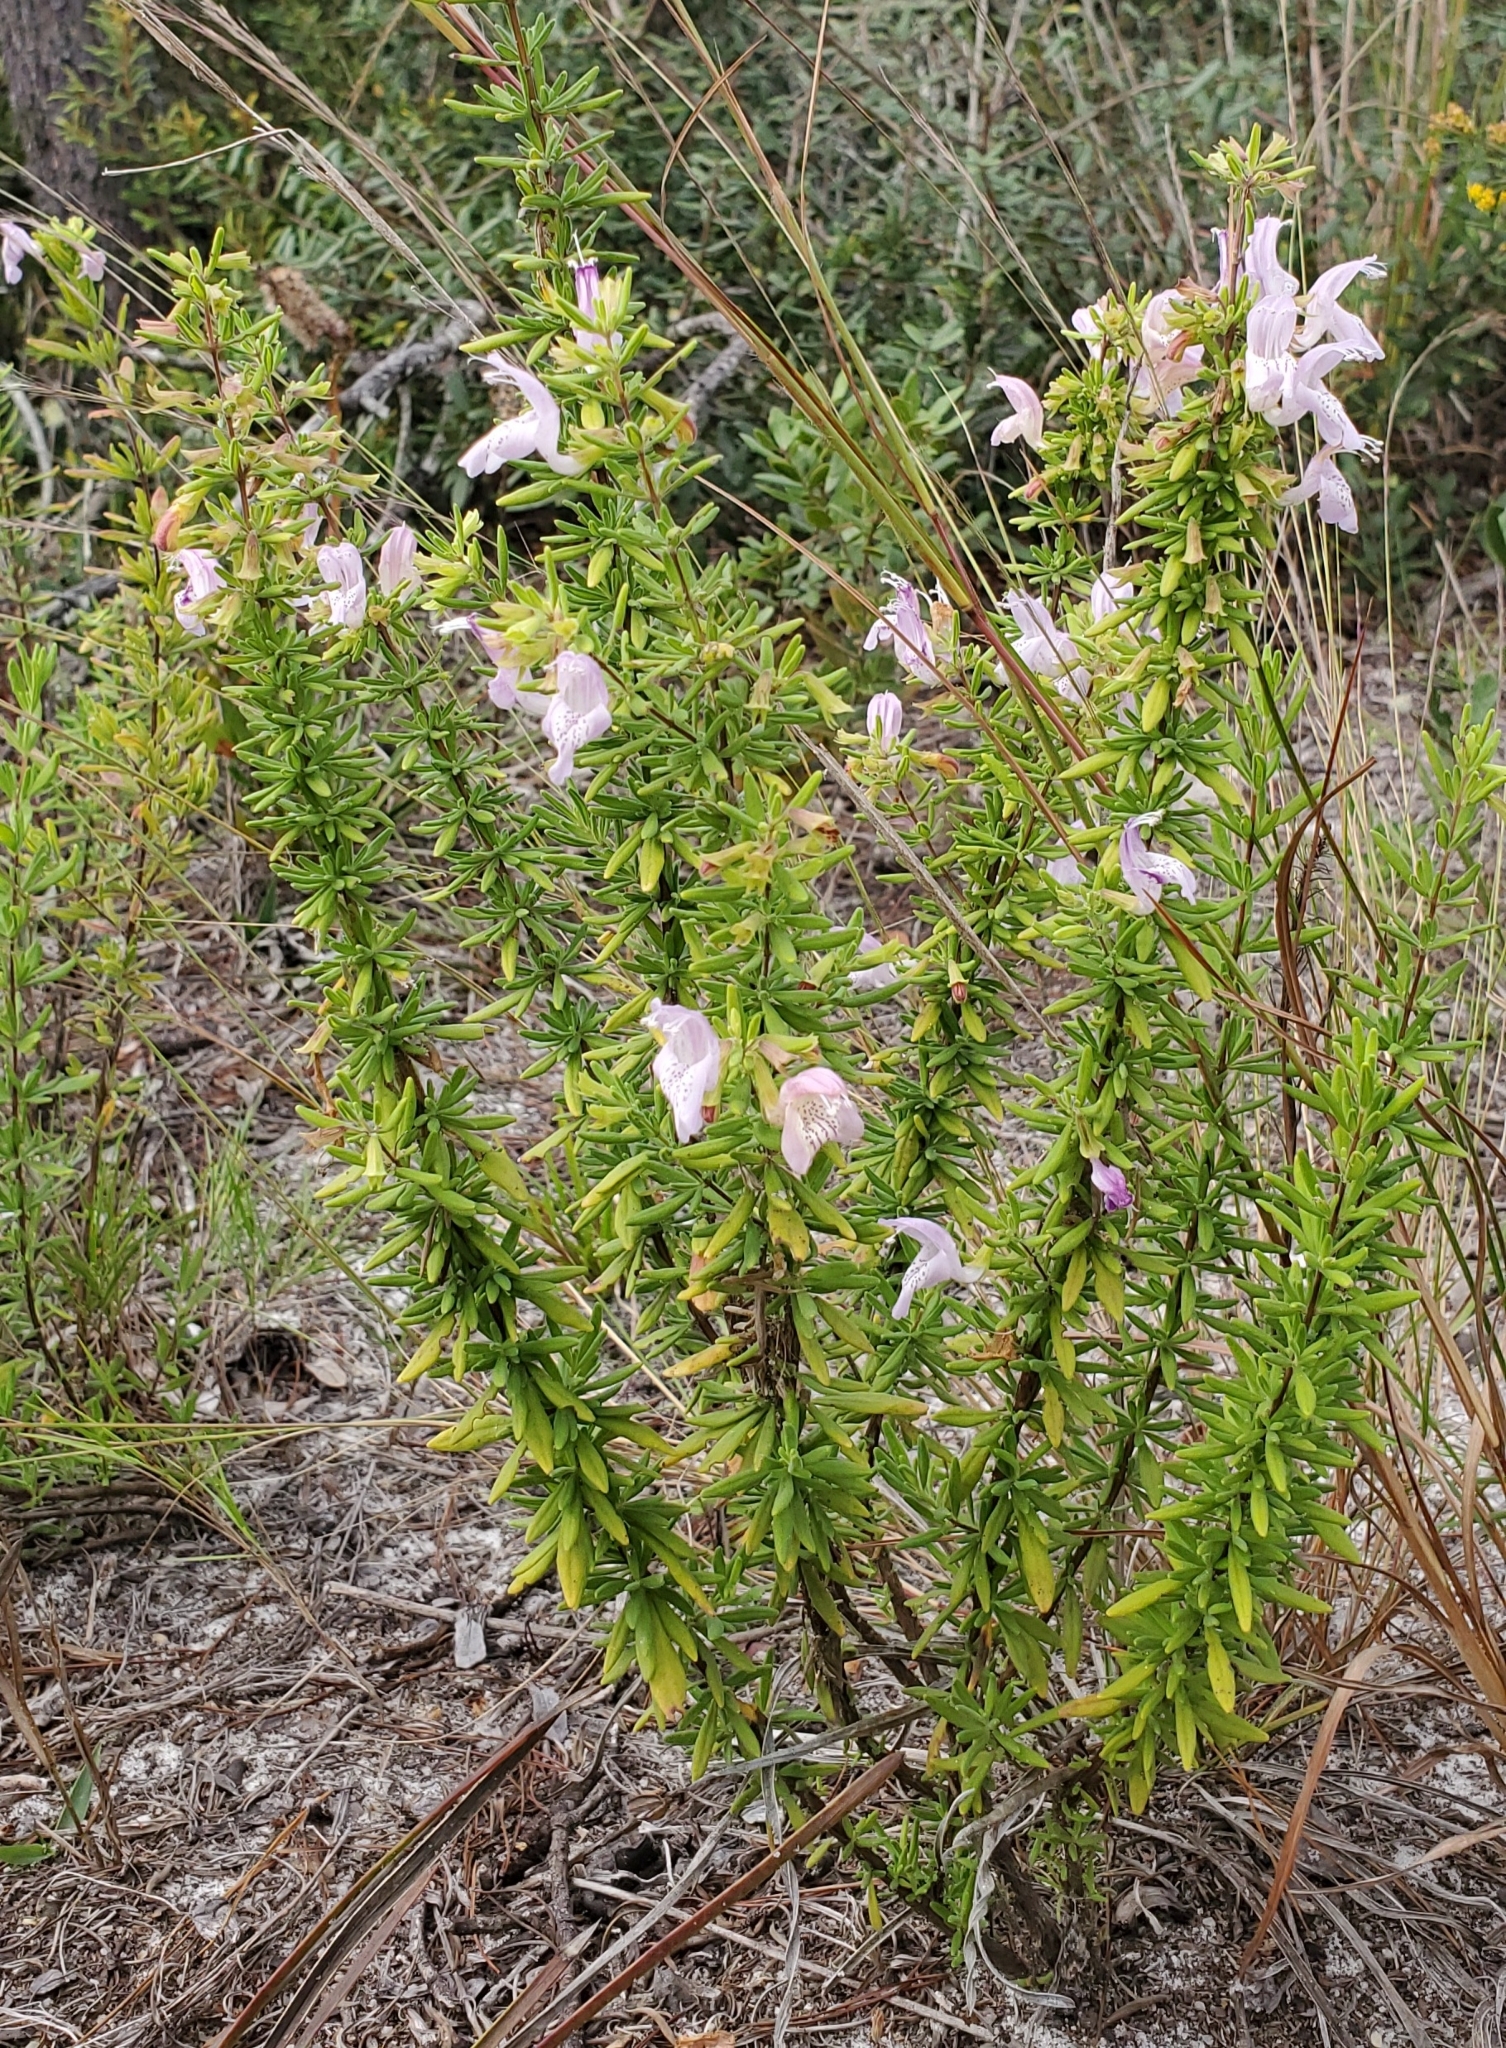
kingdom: Plantae
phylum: Tracheophyta
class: Magnoliopsida
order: Lamiales
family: Lamiaceae
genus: Conradina
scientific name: Conradina grandiflora
